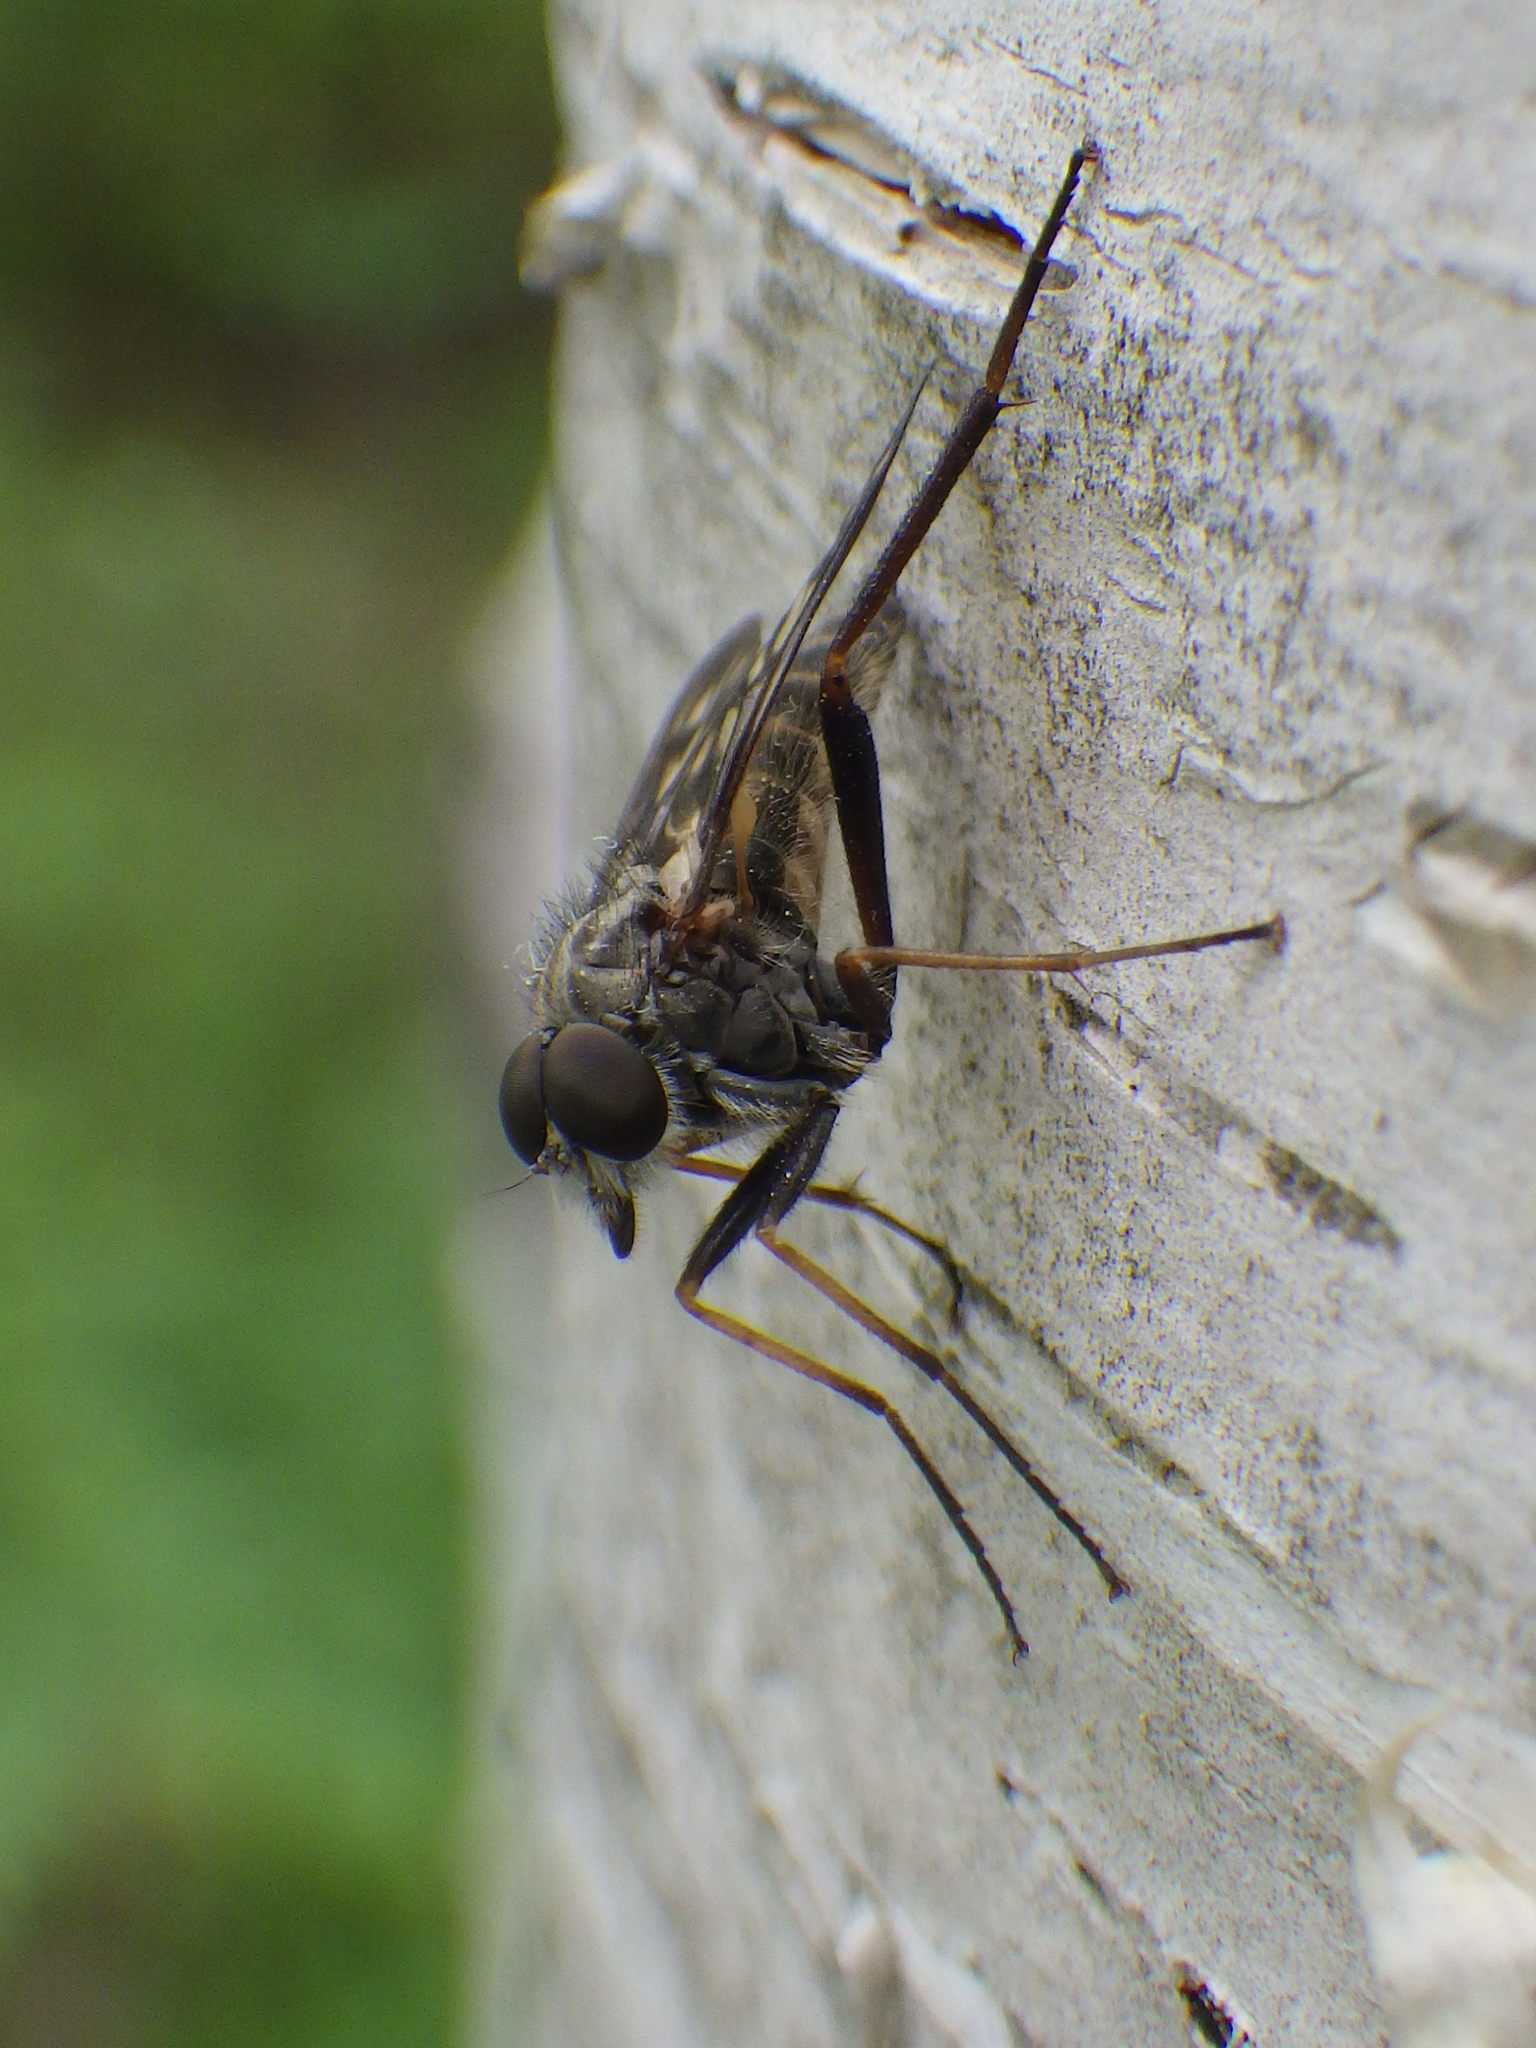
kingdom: Animalia
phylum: Arthropoda
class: Insecta
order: Diptera
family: Rhagionidae
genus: Rhagio
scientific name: Rhagio mystaceus
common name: Common snipe fly
